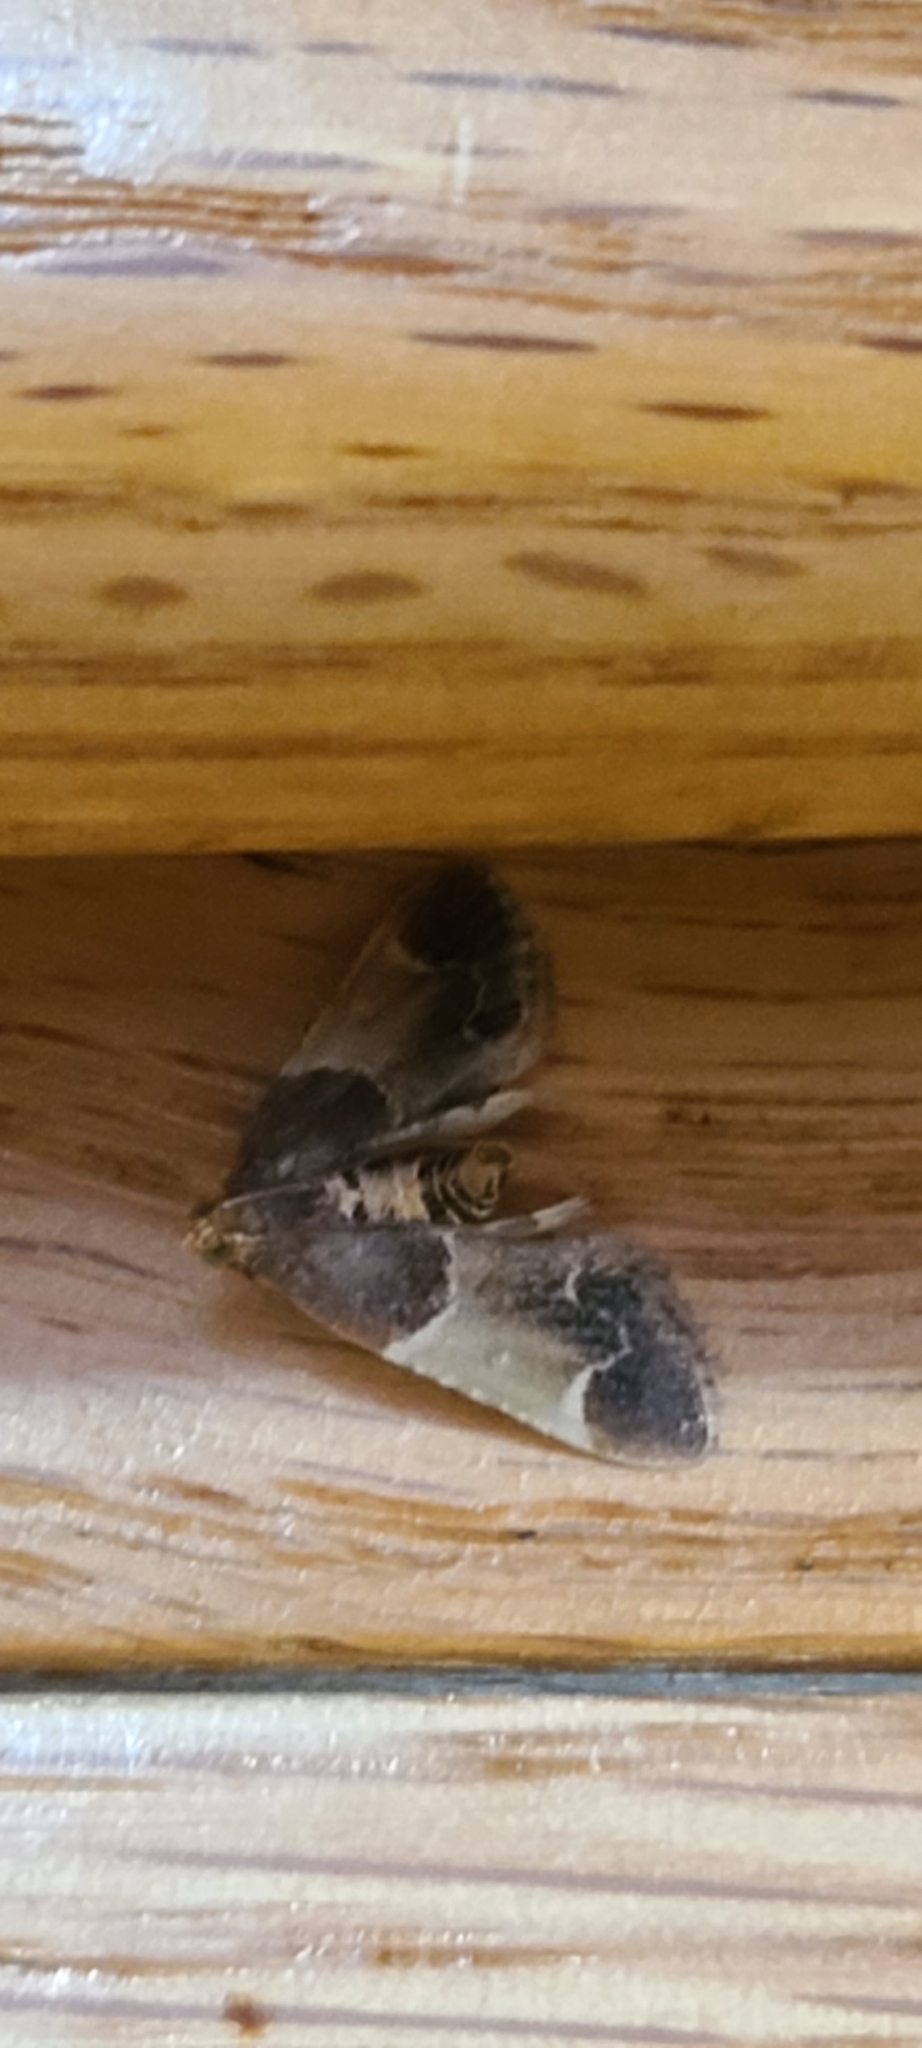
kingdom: Animalia
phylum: Arthropoda
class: Insecta
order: Lepidoptera
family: Pyralidae
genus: Pyralis
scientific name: Pyralis farinalis
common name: Meal moth
